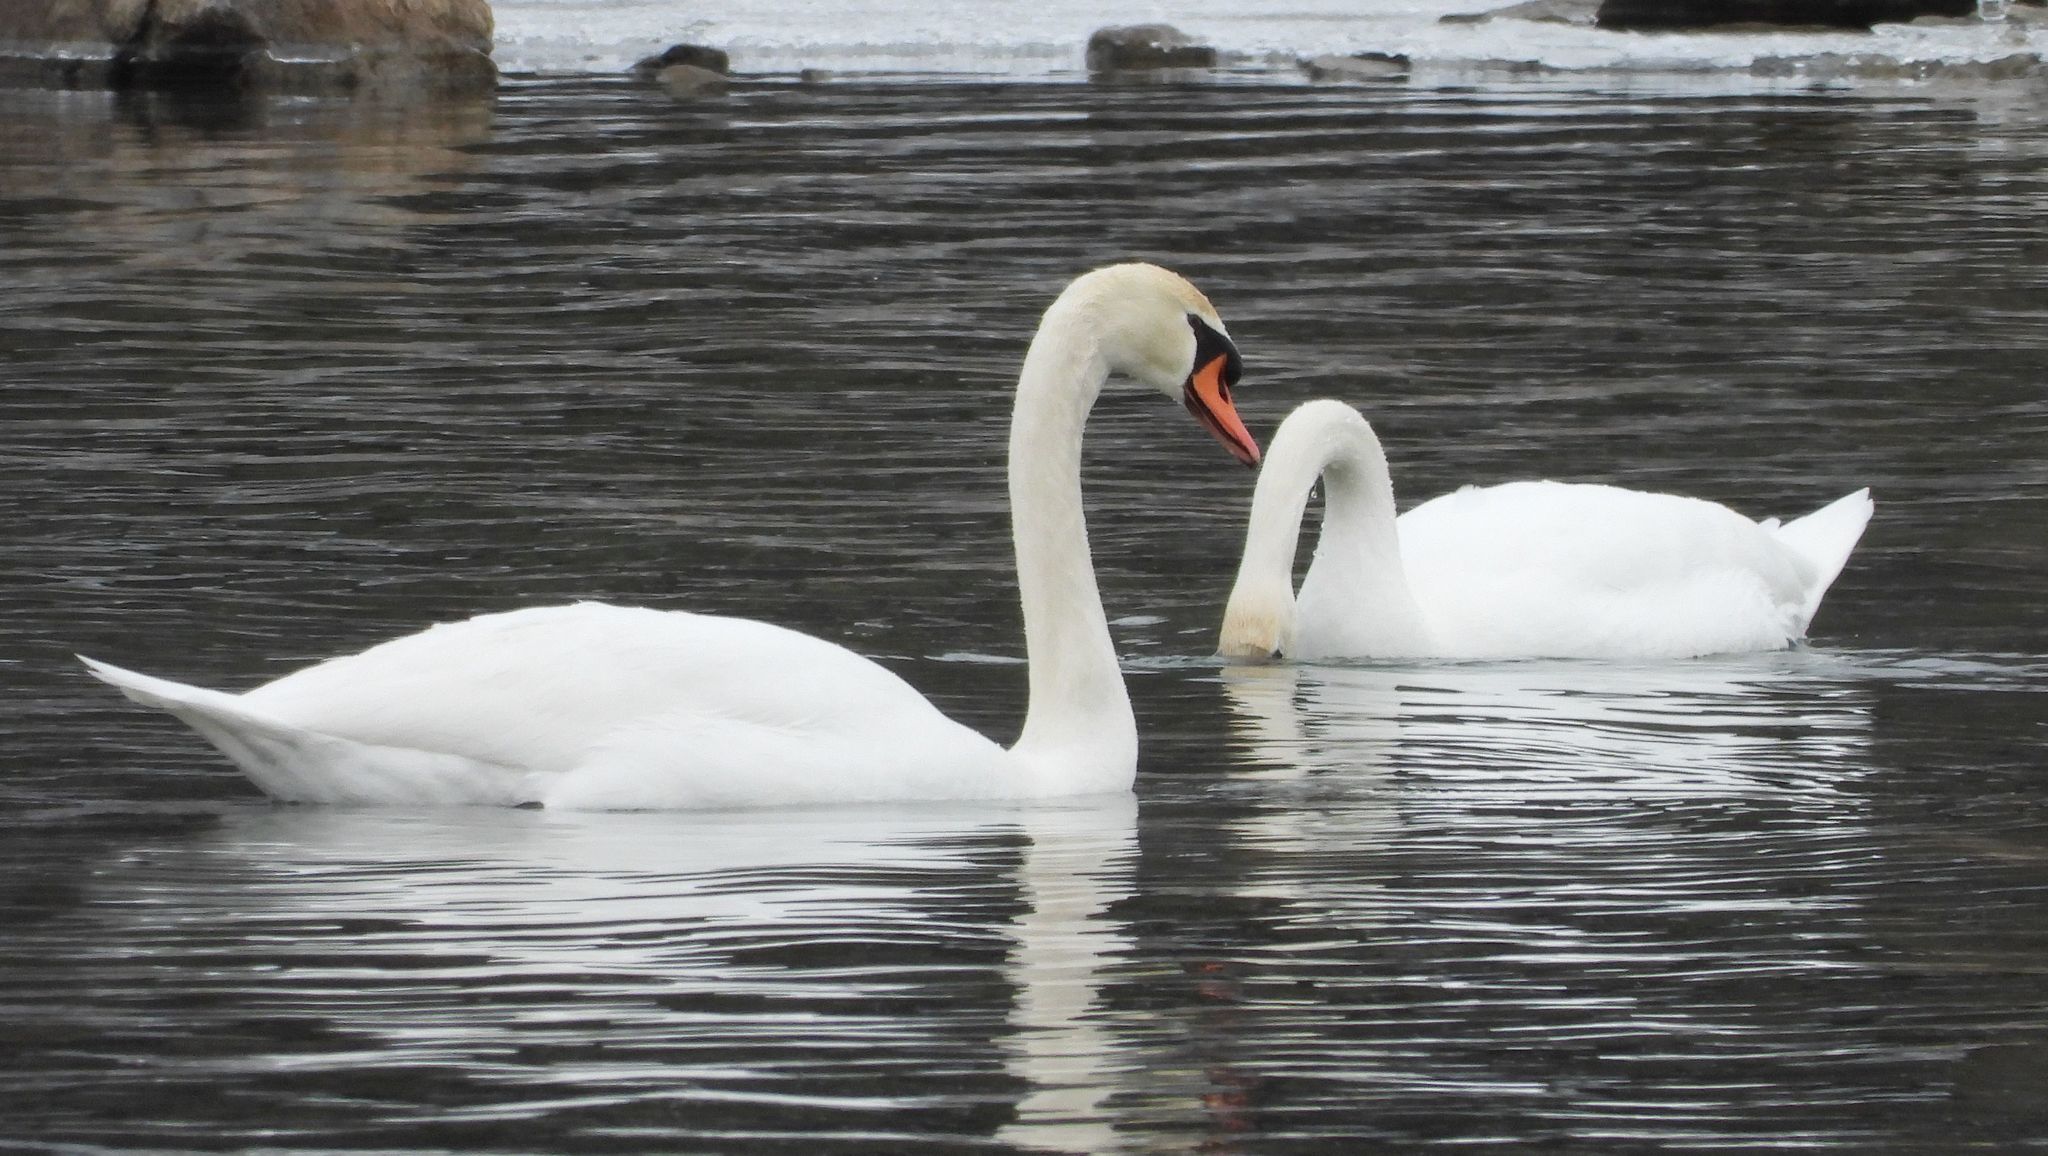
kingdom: Animalia
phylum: Chordata
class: Aves
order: Anseriformes
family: Anatidae
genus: Cygnus
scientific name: Cygnus olor
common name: Mute swan
